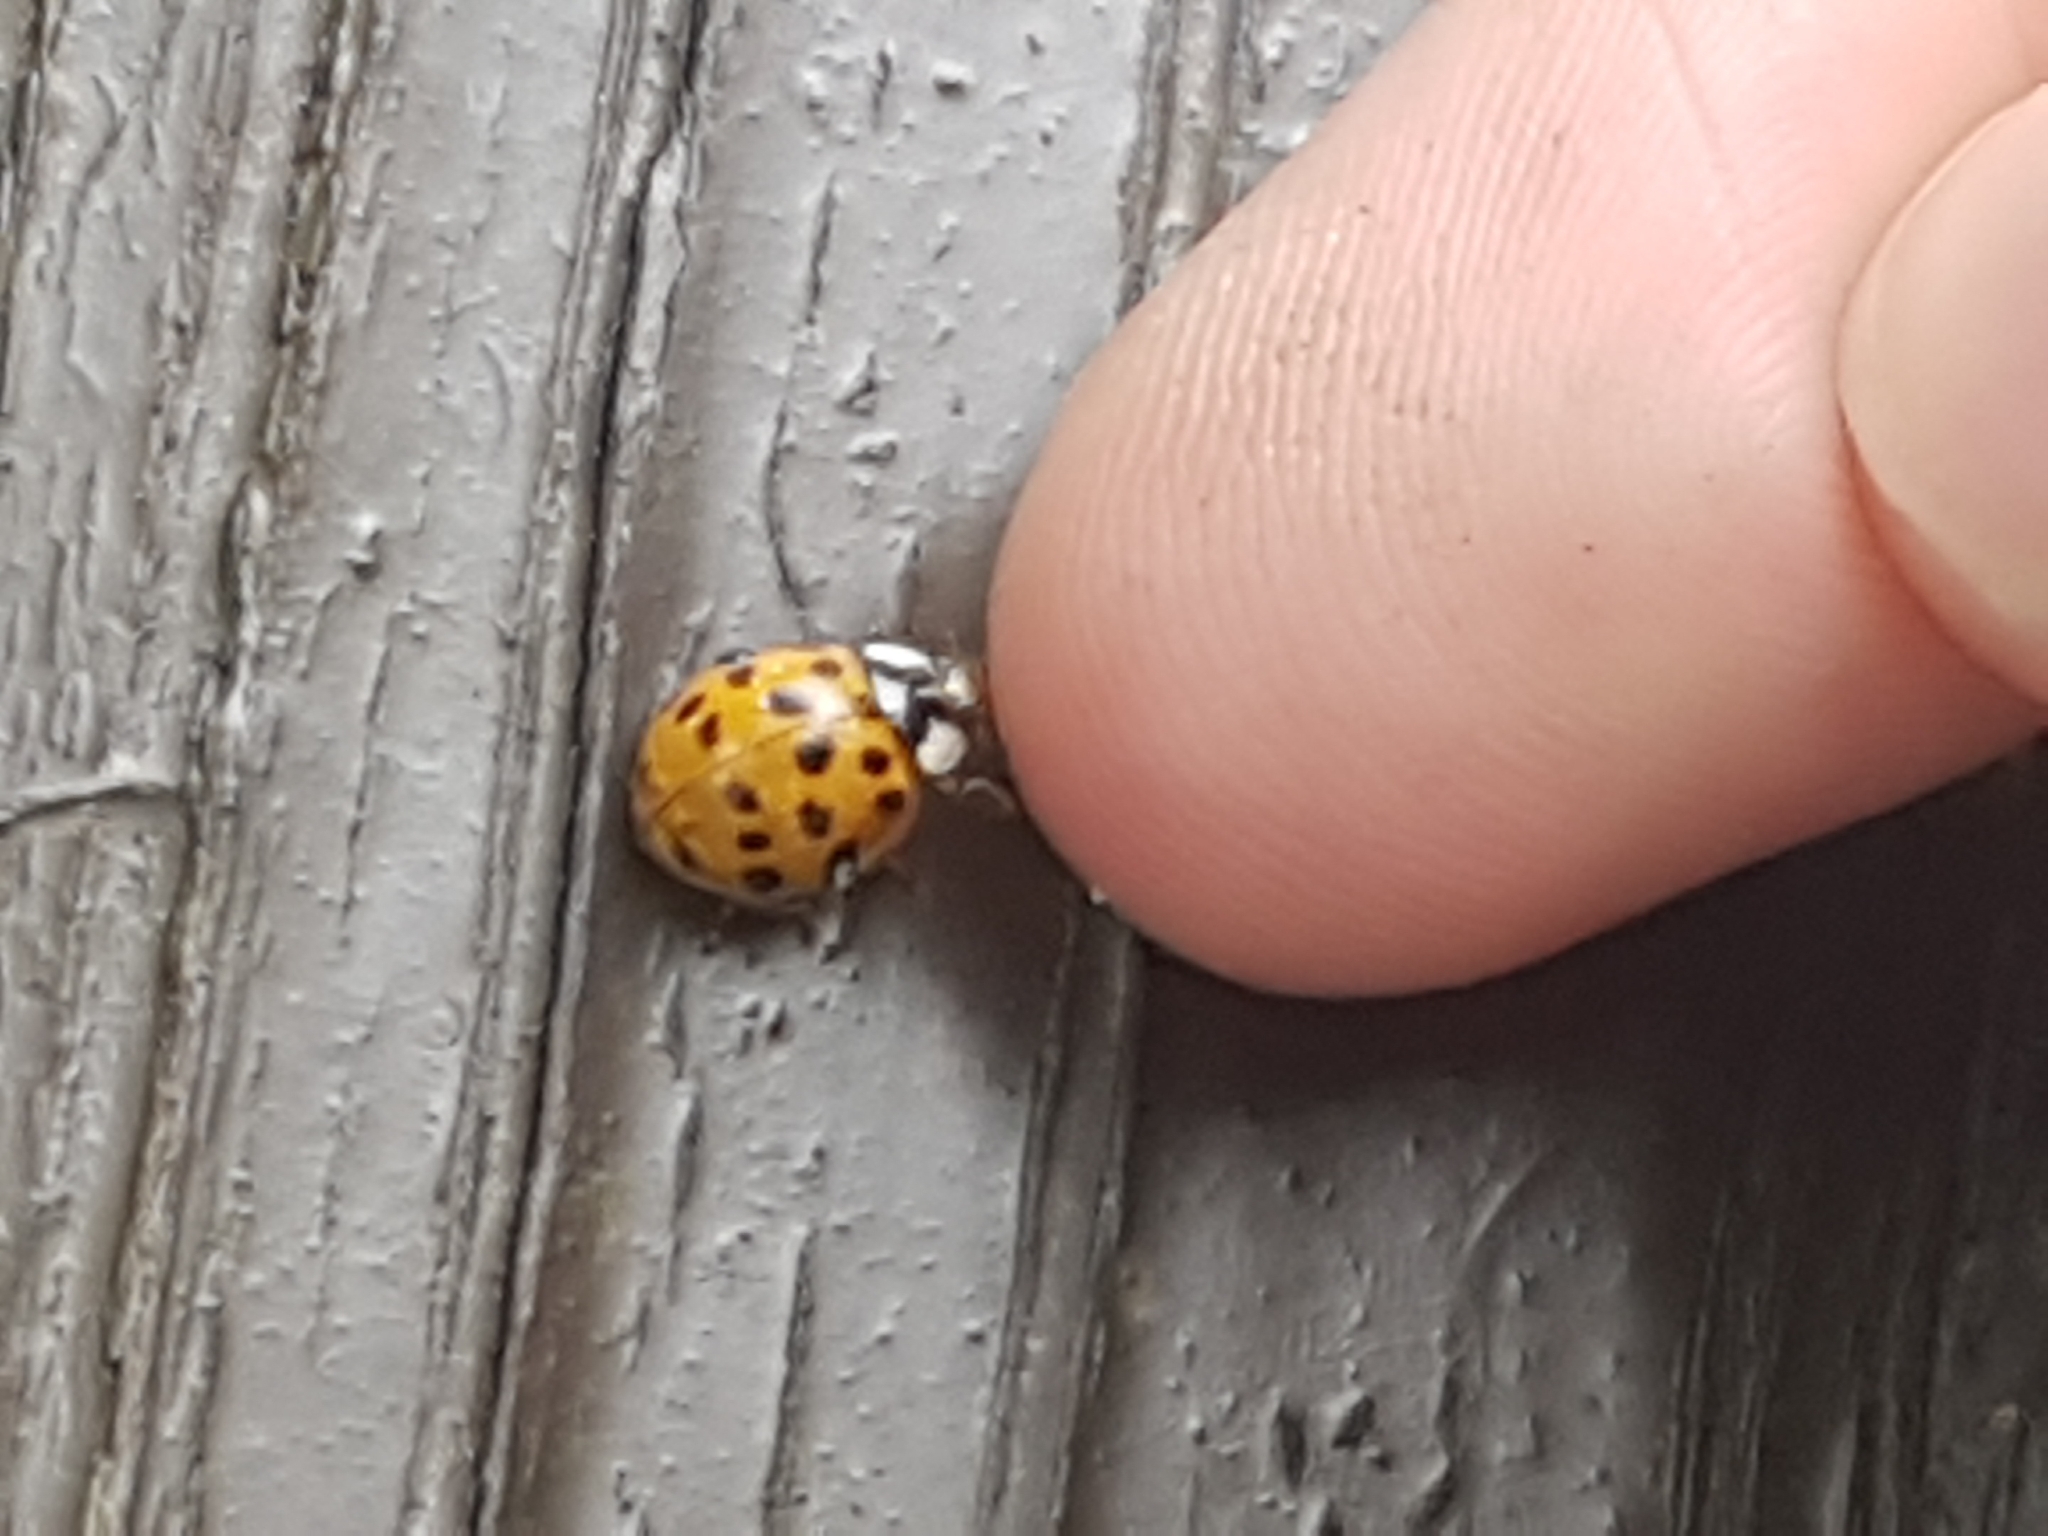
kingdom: Animalia
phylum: Arthropoda
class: Insecta
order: Coleoptera
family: Coccinellidae
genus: Harmonia
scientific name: Harmonia axyridis
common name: Harlequin ladybird
